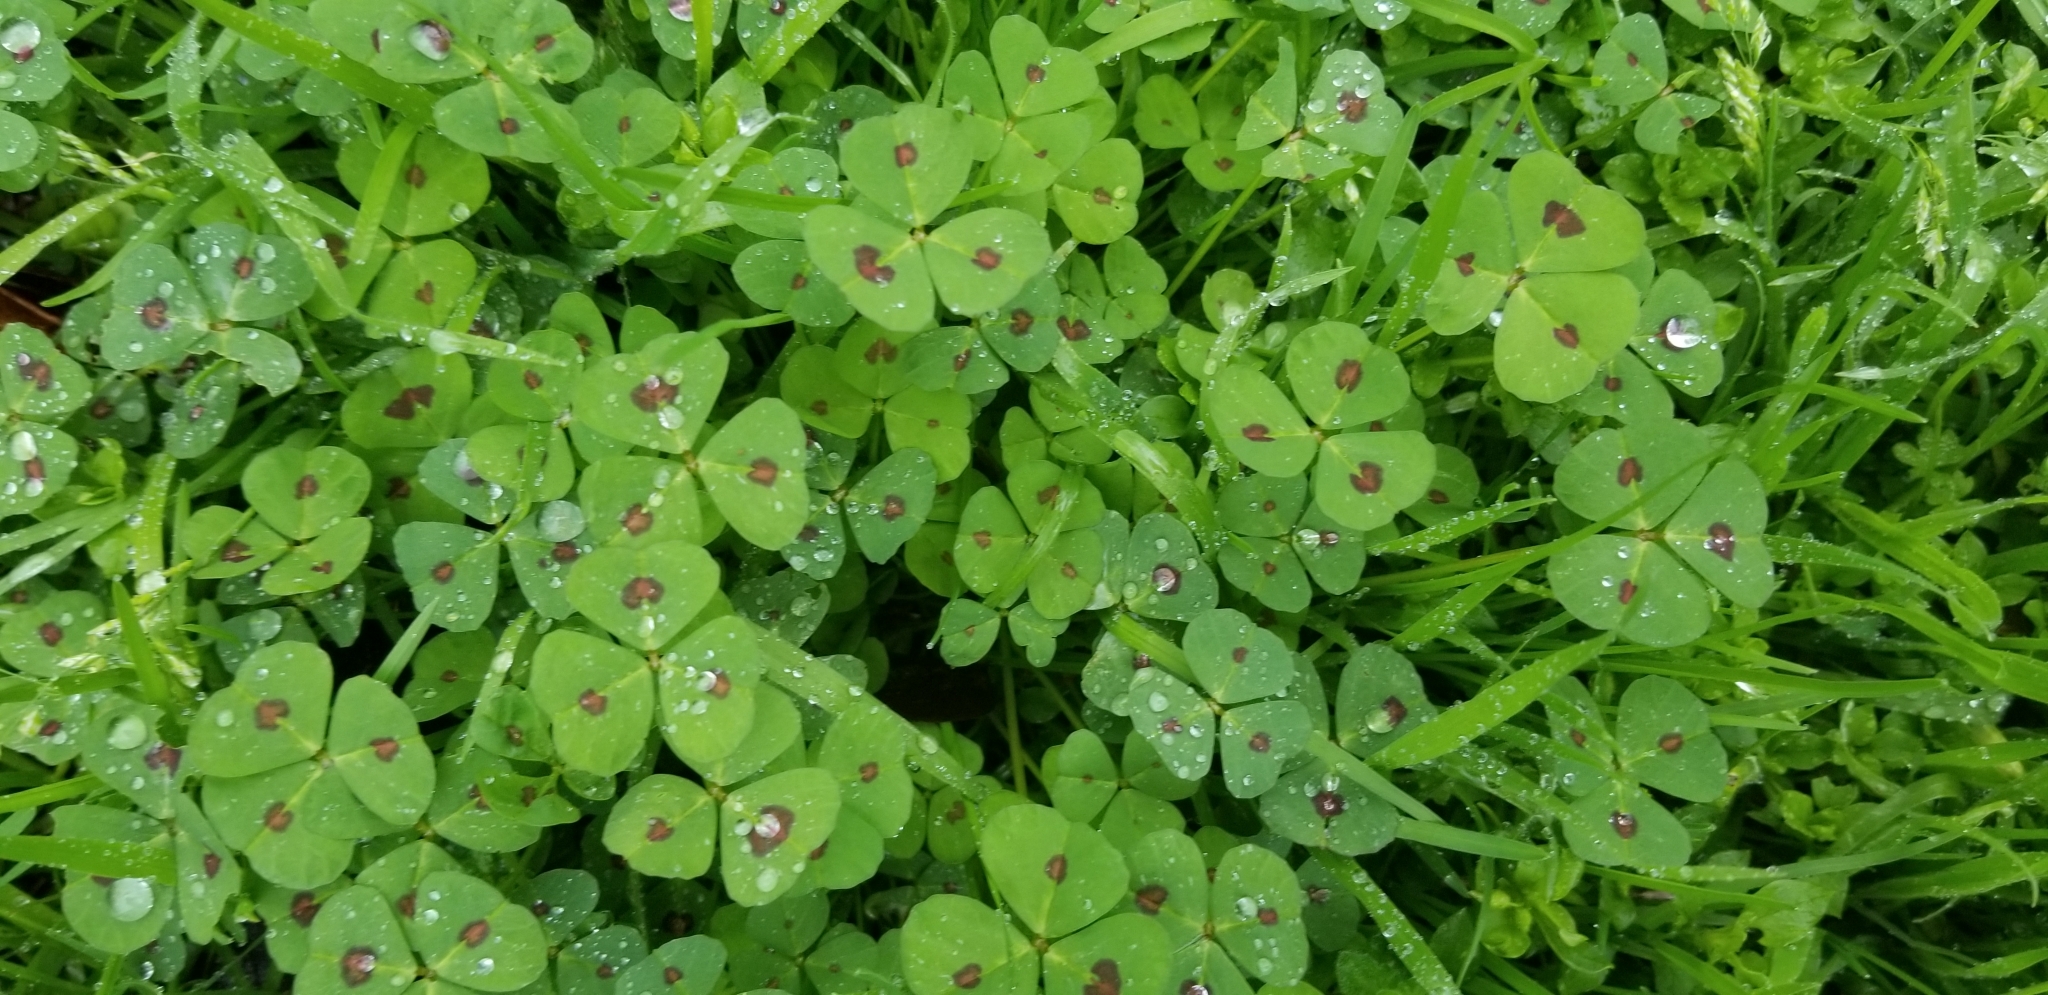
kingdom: Plantae
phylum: Tracheophyta
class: Magnoliopsida
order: Fabales
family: Fabaceae
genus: Medicago
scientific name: Medicago arabica
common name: Spotted medick
